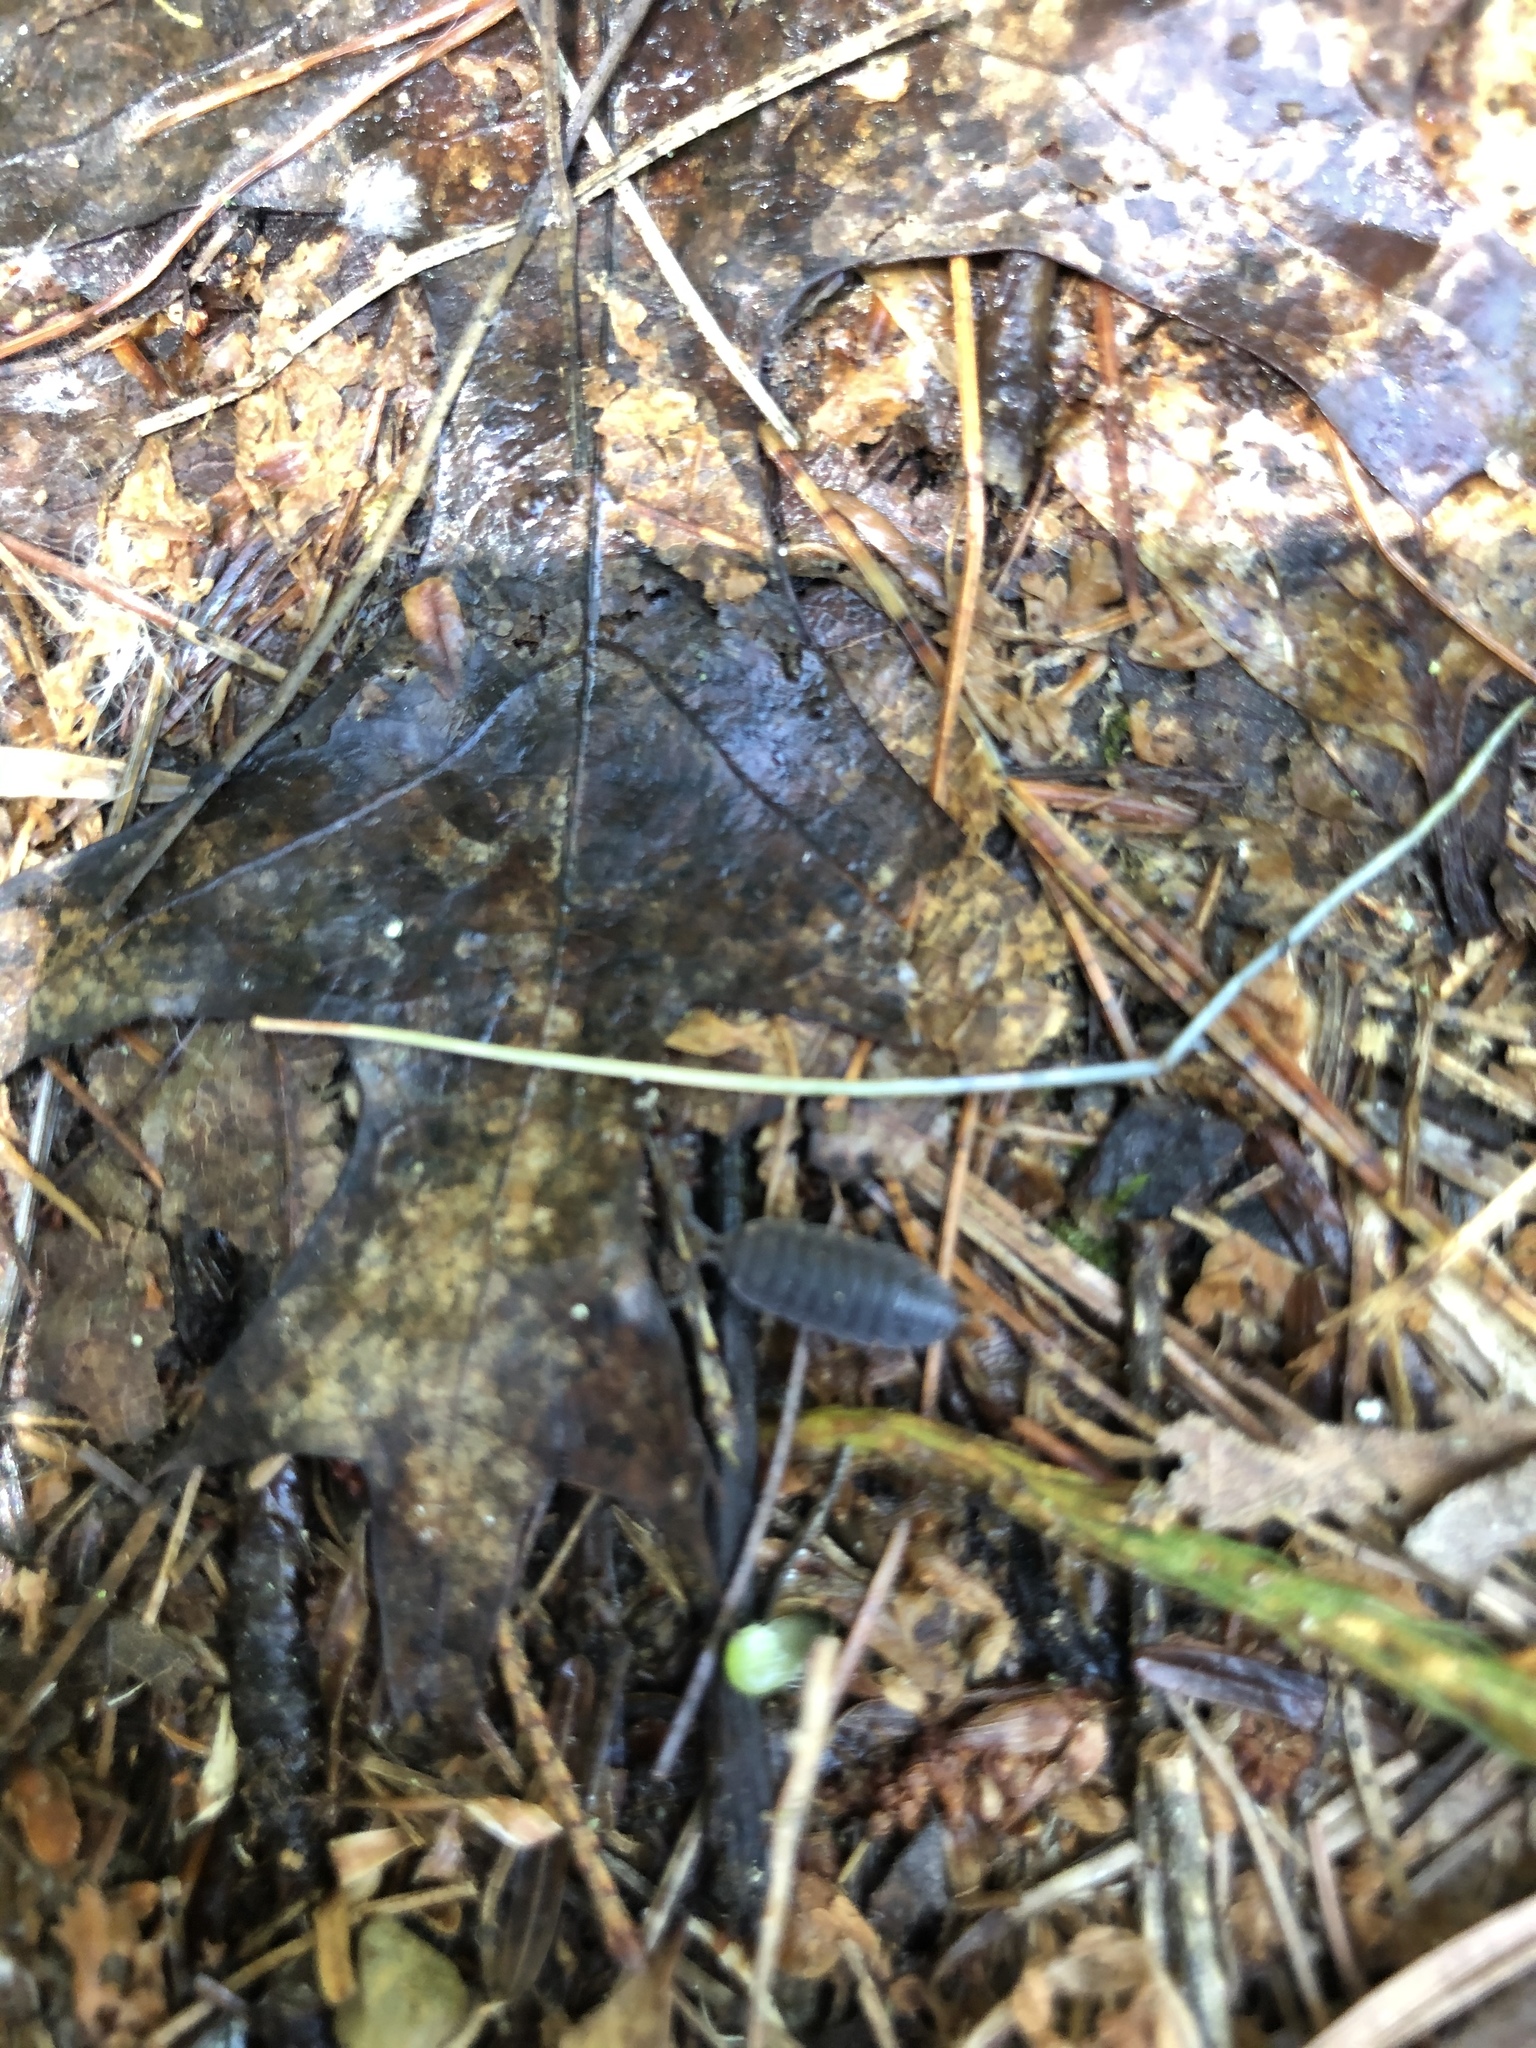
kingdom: Animalia
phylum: Arthropoda
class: Malacostraca
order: Isopoda
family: Porcellionidae
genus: Porcellio
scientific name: Porcellio scaber
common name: Common rough woodlouse
